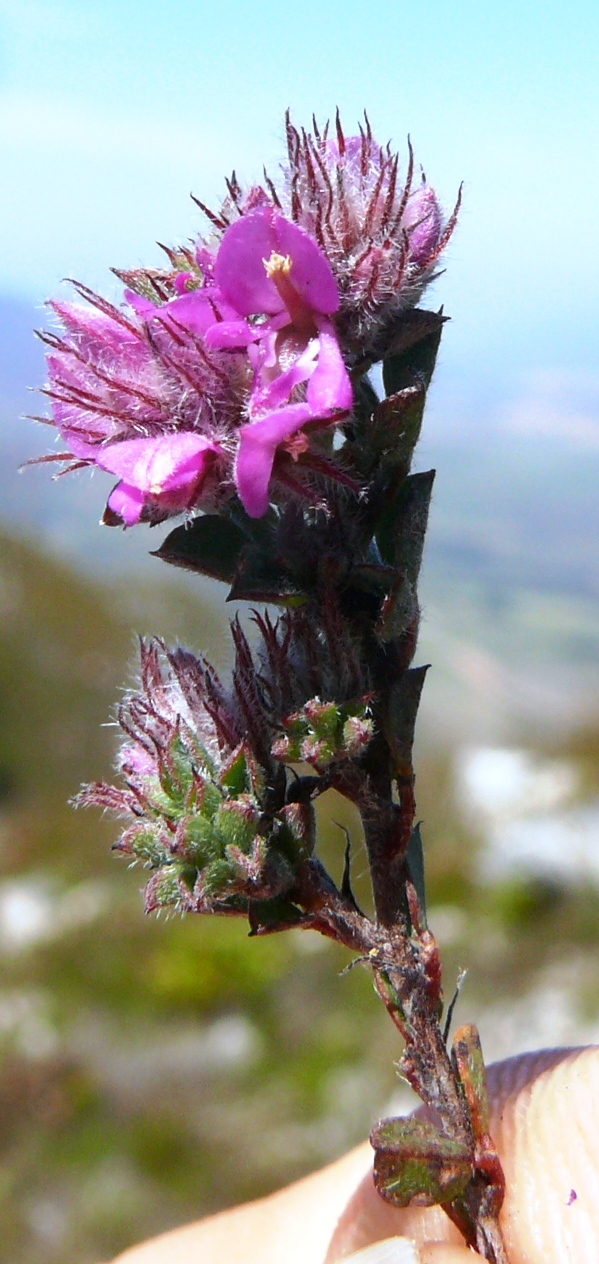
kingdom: Plantae
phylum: Tracheophyta
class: Magnoliopsida
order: Fabales
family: Fabaceae
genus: Indigofera
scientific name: Indigofera glomerata
